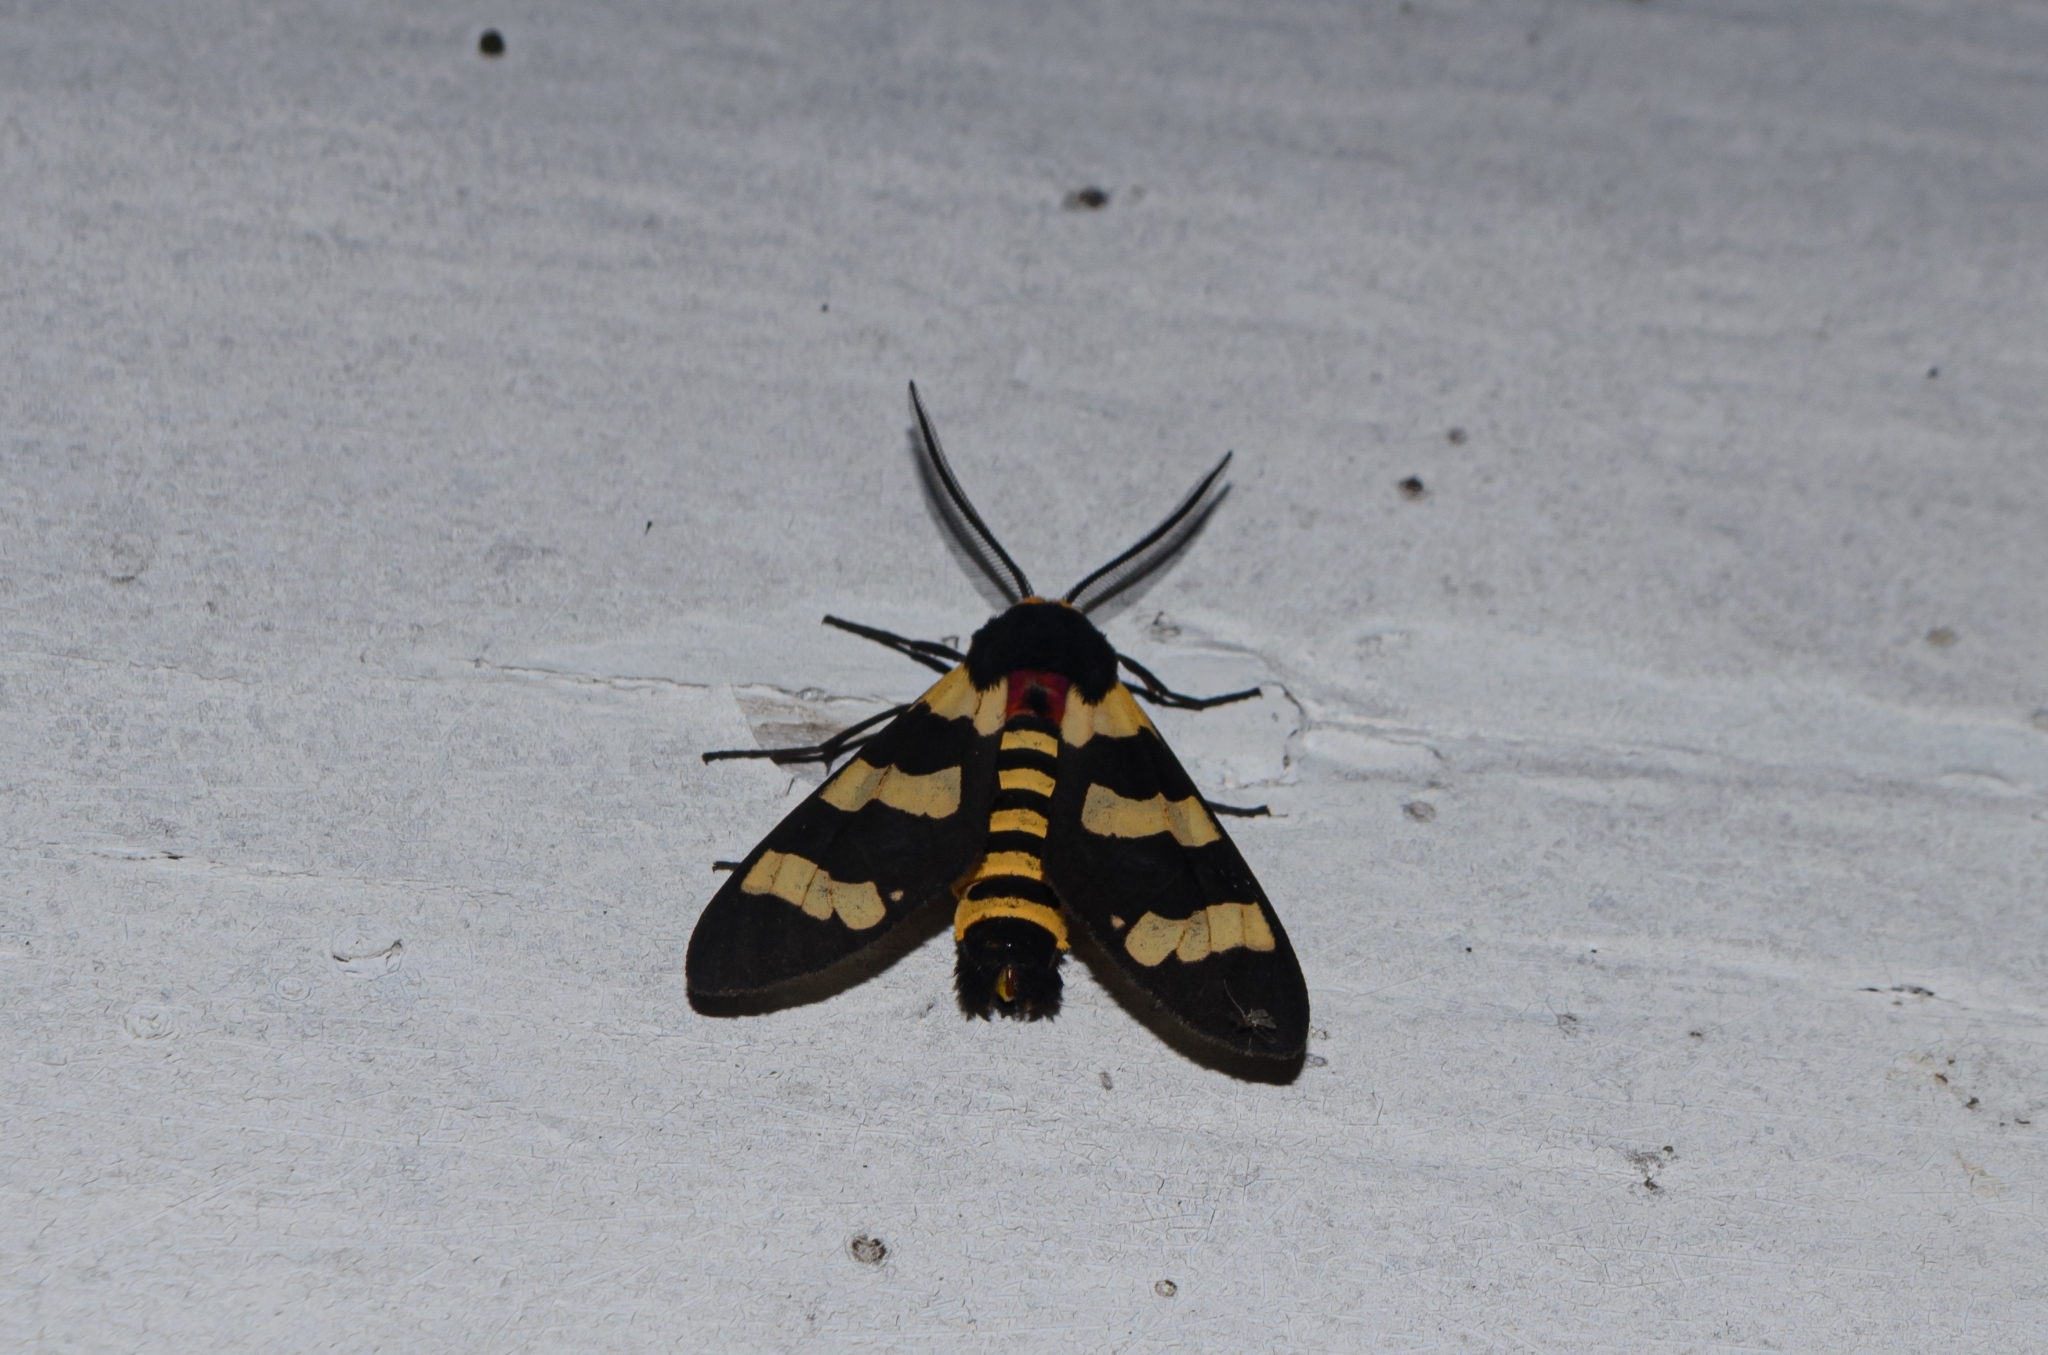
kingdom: Animalia
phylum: Arthropoda
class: Insecta
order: Lepidoptera
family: Erebidae
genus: Eurata
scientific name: Eurata hilaris
